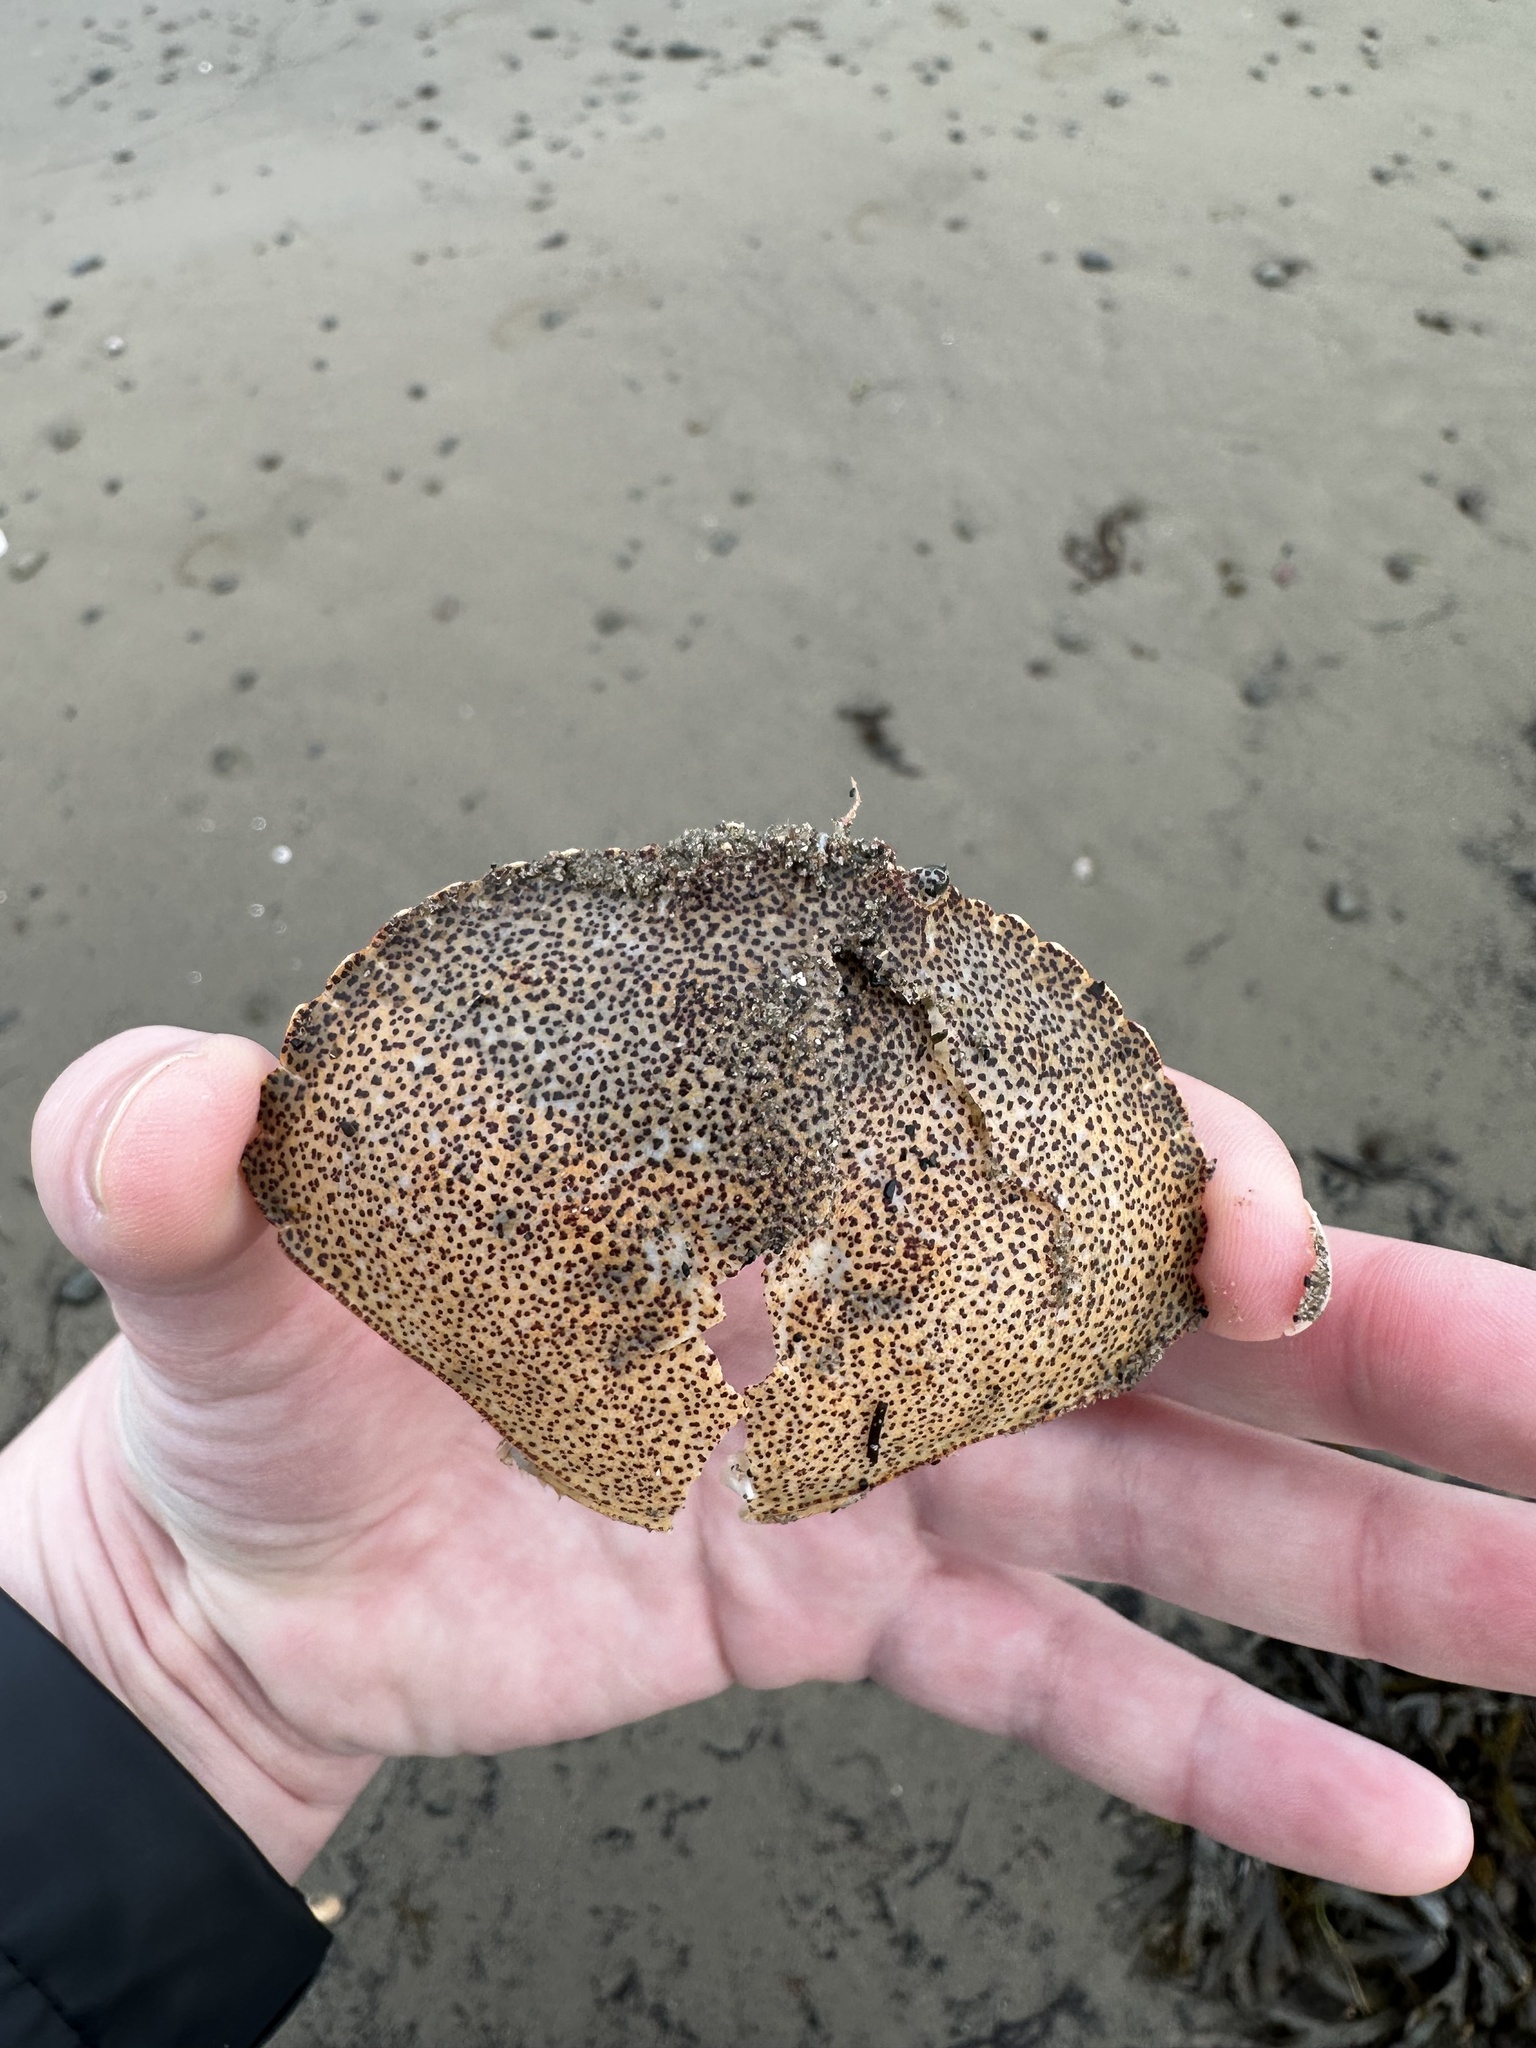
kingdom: Animalia
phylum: Arthropoda
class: Malacostraca
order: Decapoda
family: Cancridae
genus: Cancer
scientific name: Cancer irroratus
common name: Atlantic rock crab
